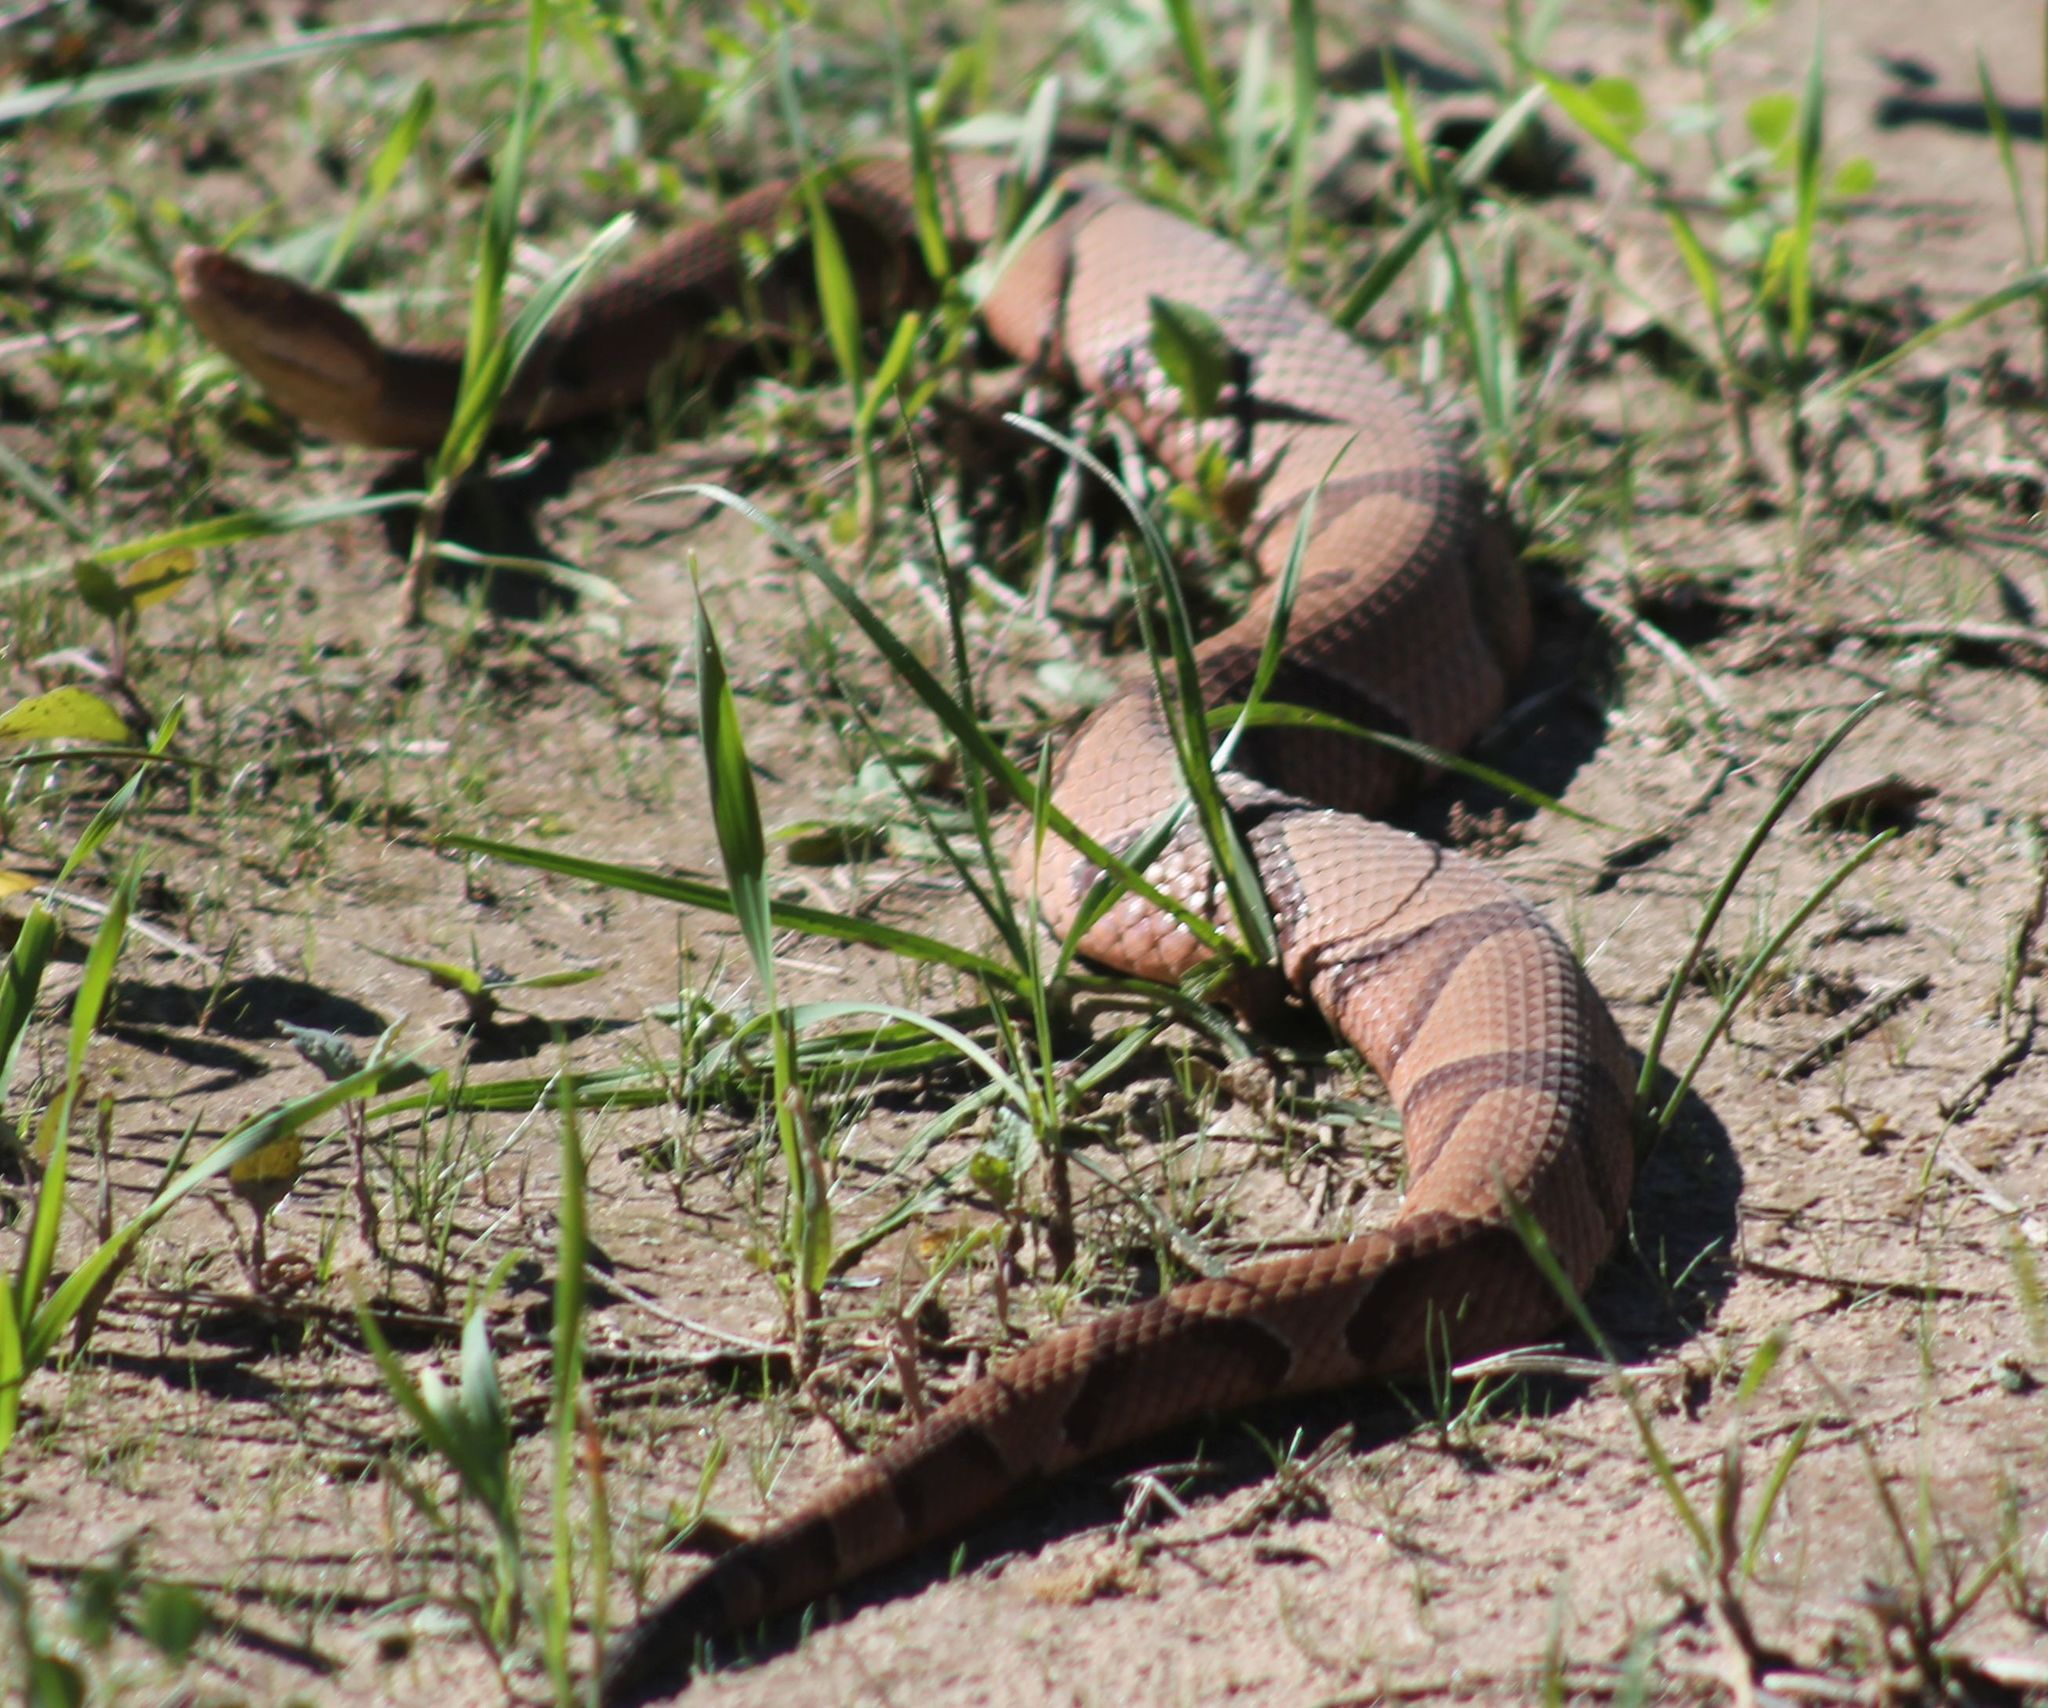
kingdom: Animalia
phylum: Chordata
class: Squamata
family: Viperidae
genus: Agkistrodon
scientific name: Agkistrodon contortrix
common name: Northern copperhead
